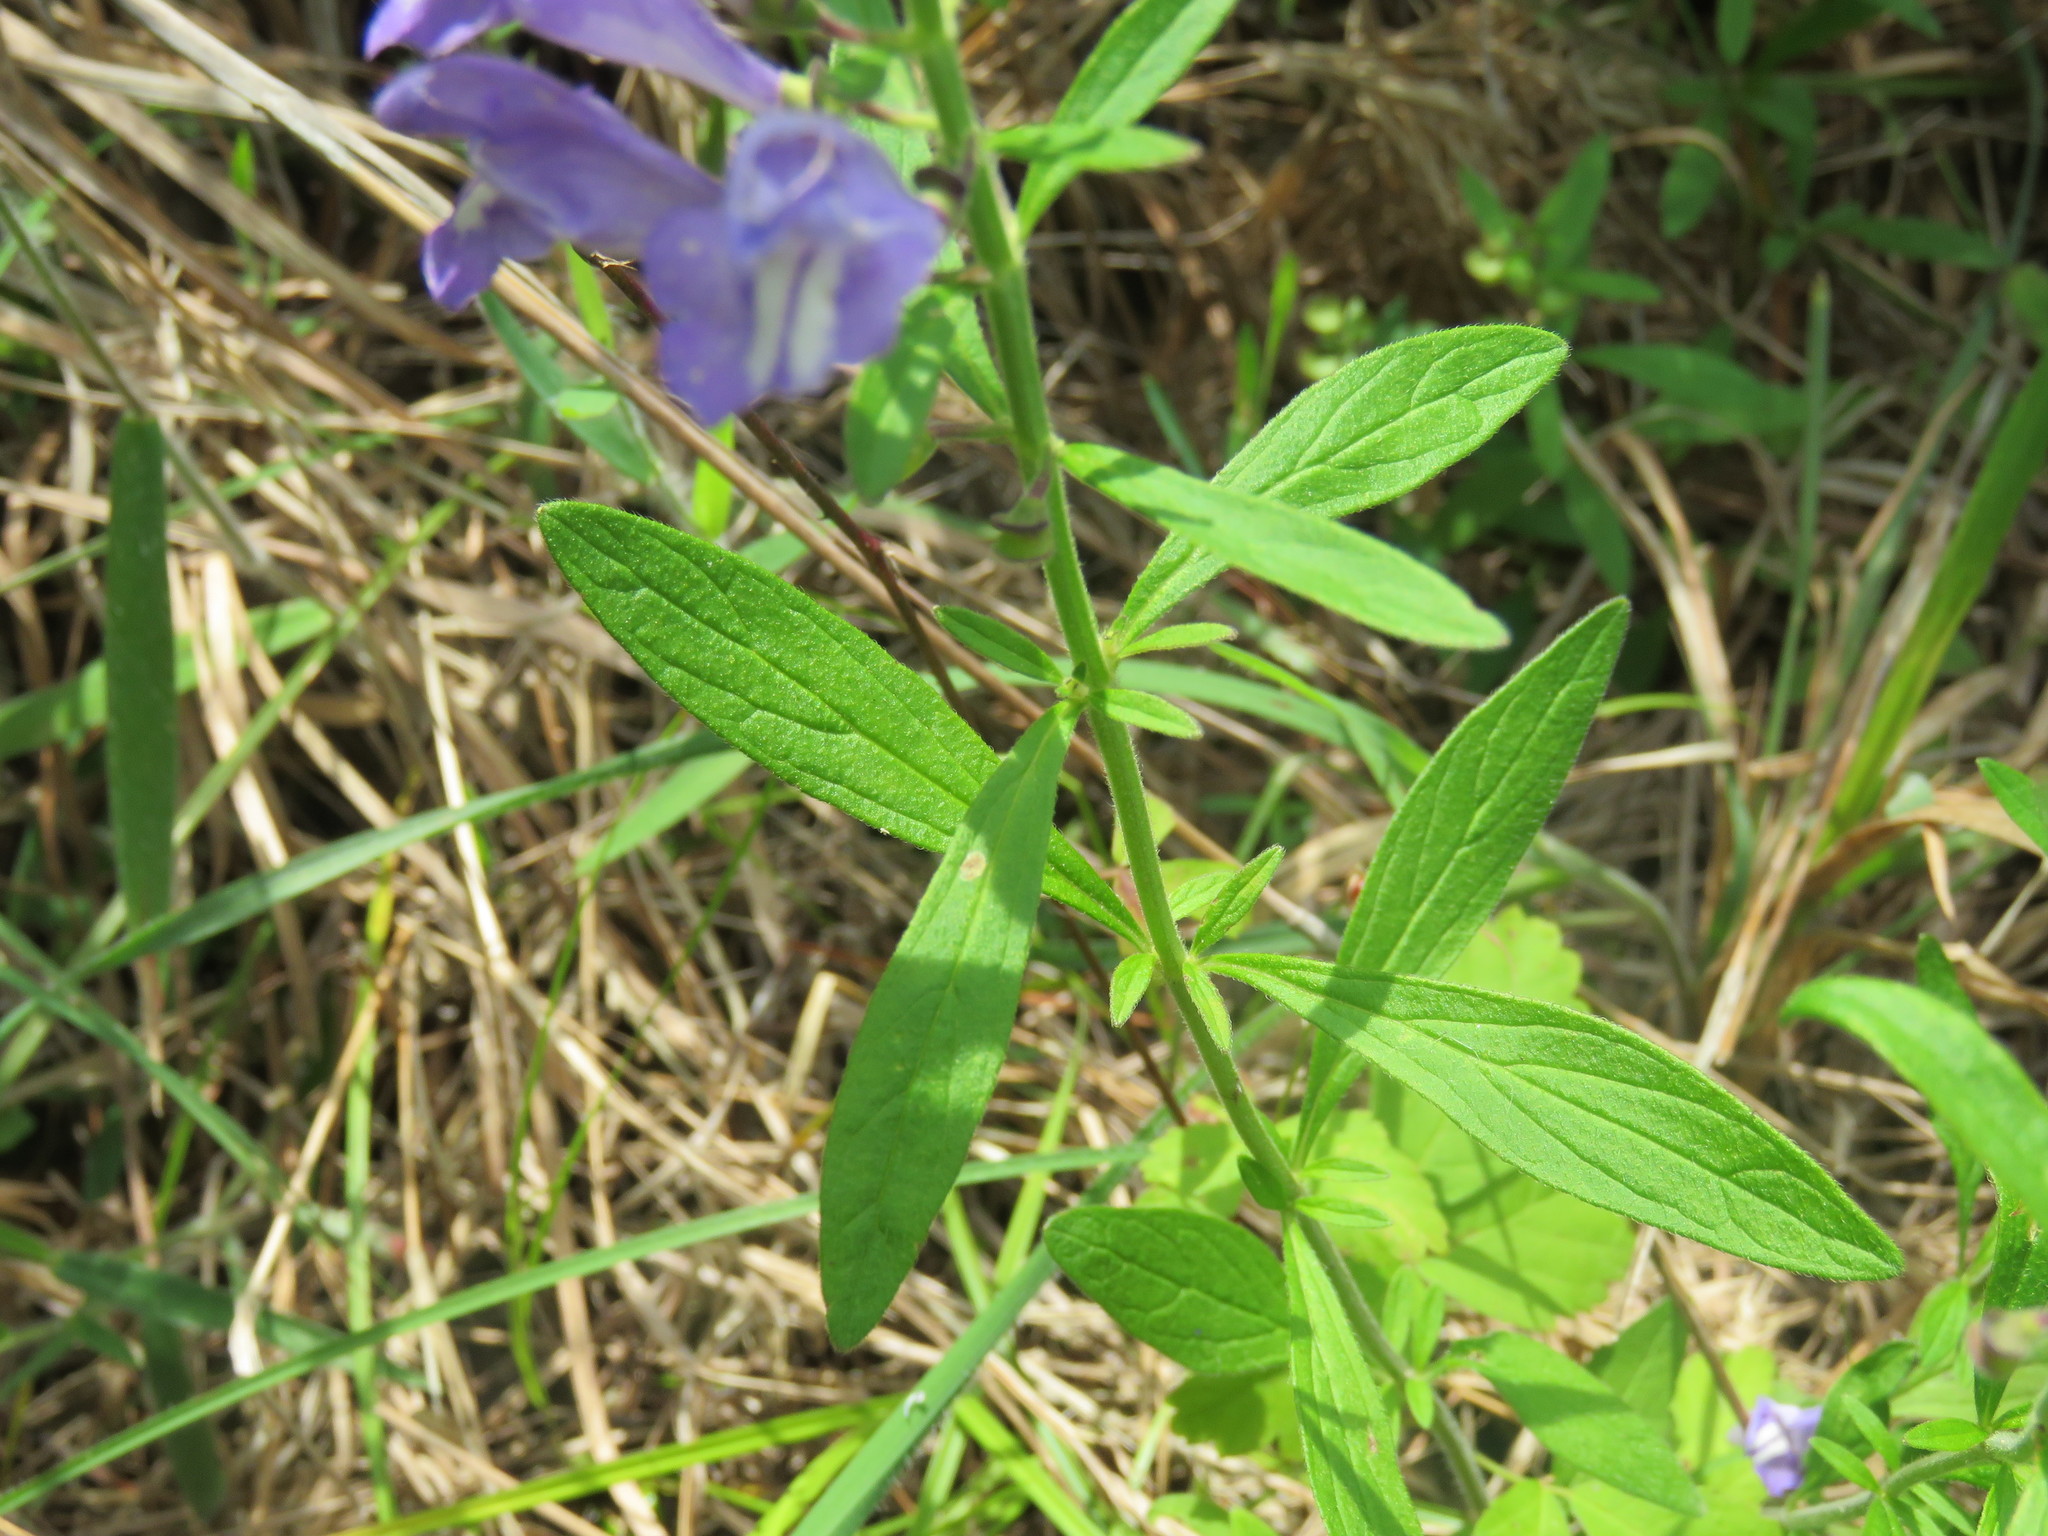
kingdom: Plantae
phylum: Tracheophyta
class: Magnoliopsida
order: Lamiales
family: Lamiaceae
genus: Scutellaria
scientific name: Scutellaria integrifolia
